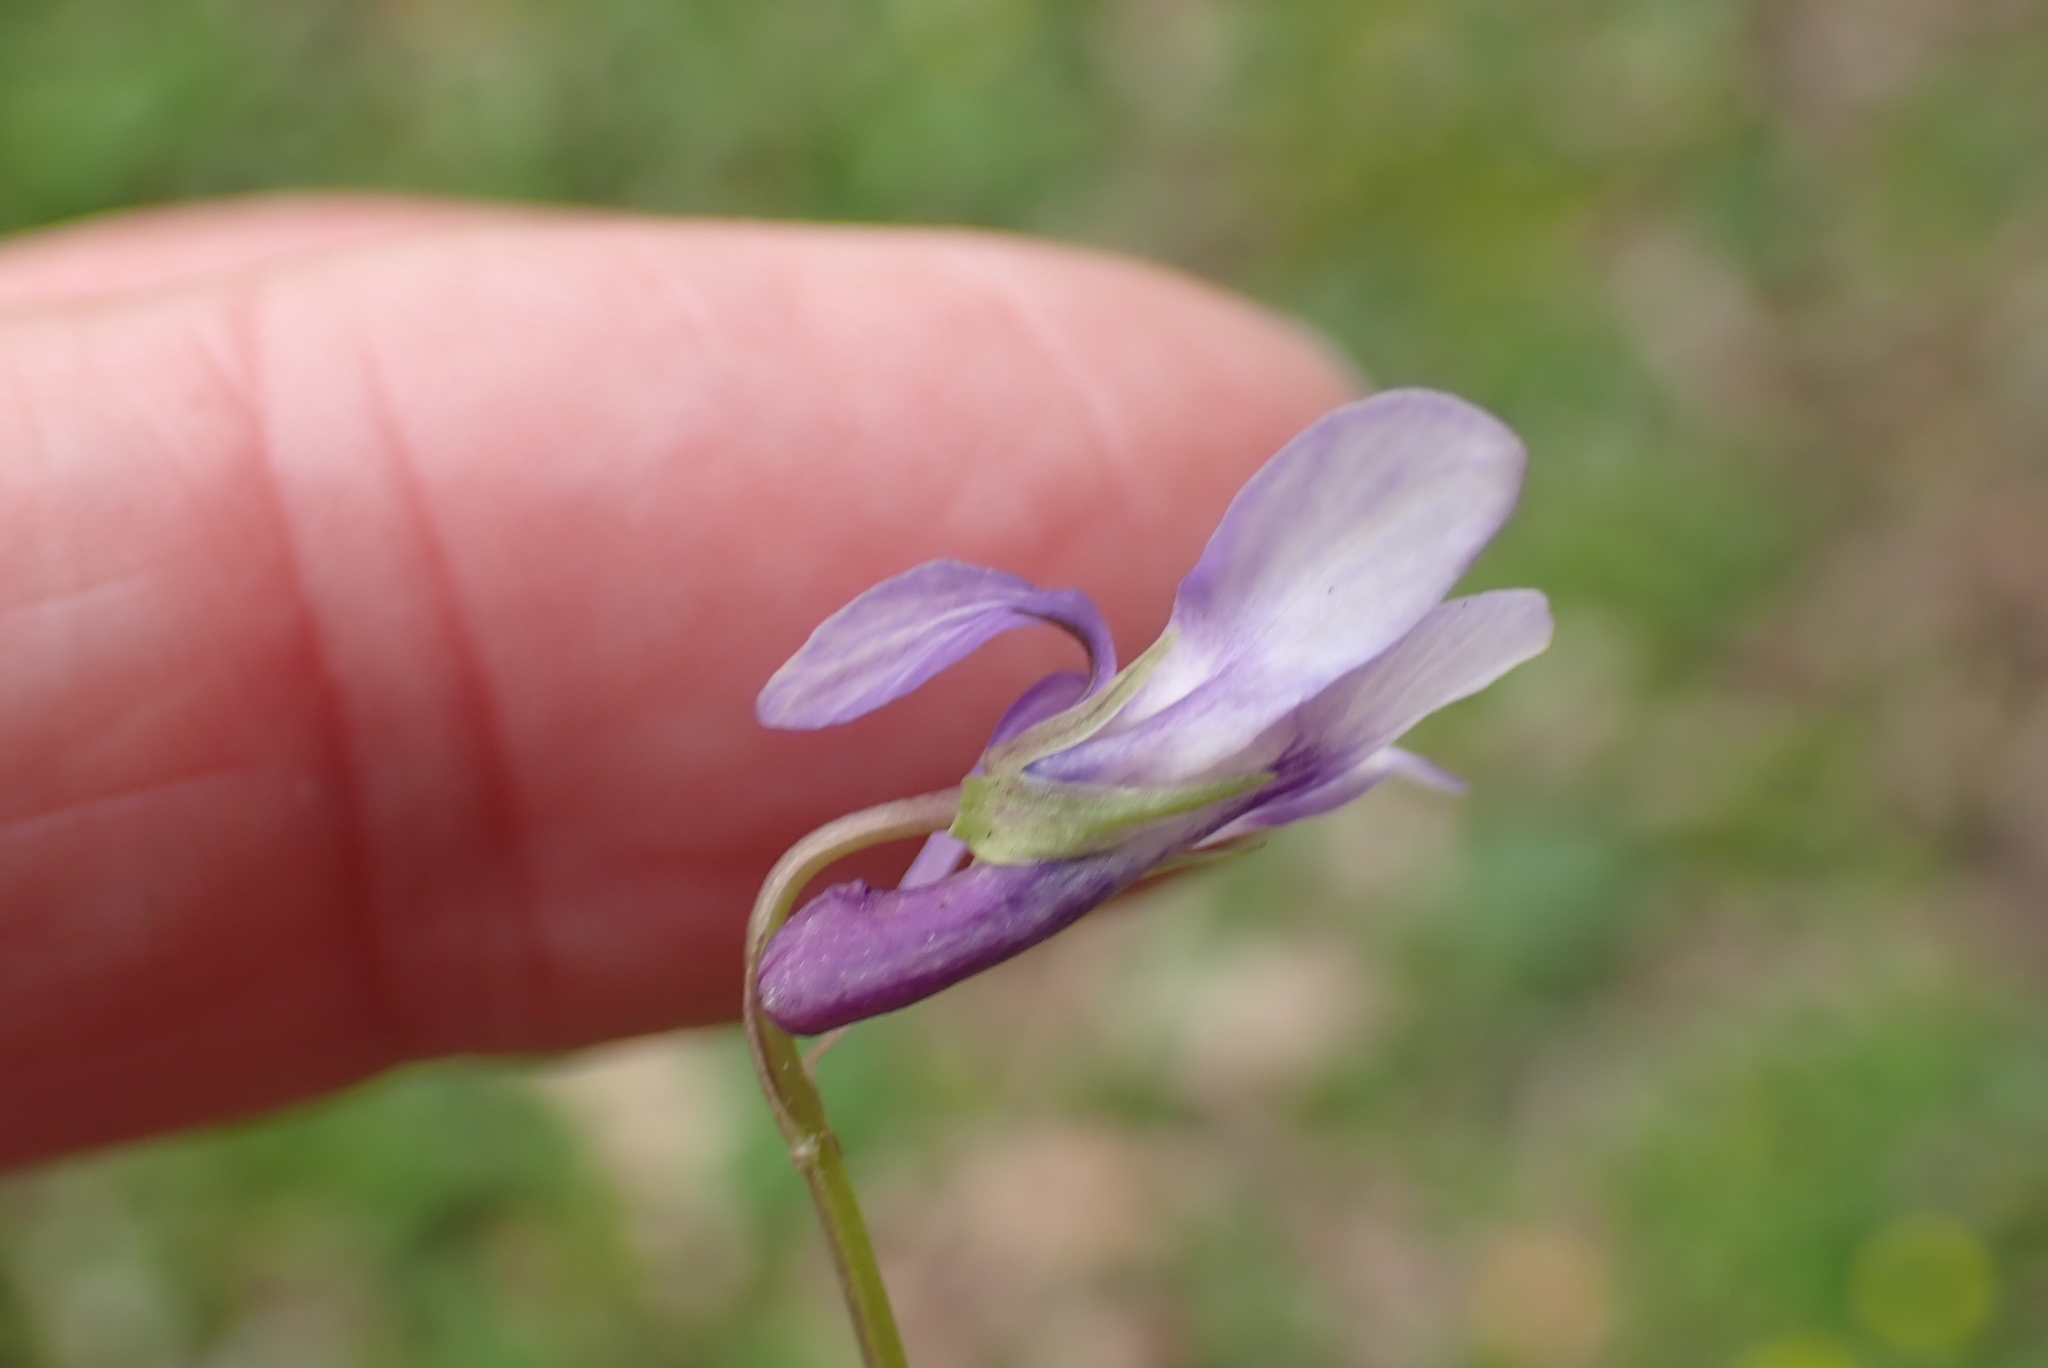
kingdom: Plantae
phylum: Tracheophyta
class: Magnoliopsida
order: Malpighiales
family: Violaceae
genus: Viola
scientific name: Viola reichenbachiana
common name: Early dog-violet
